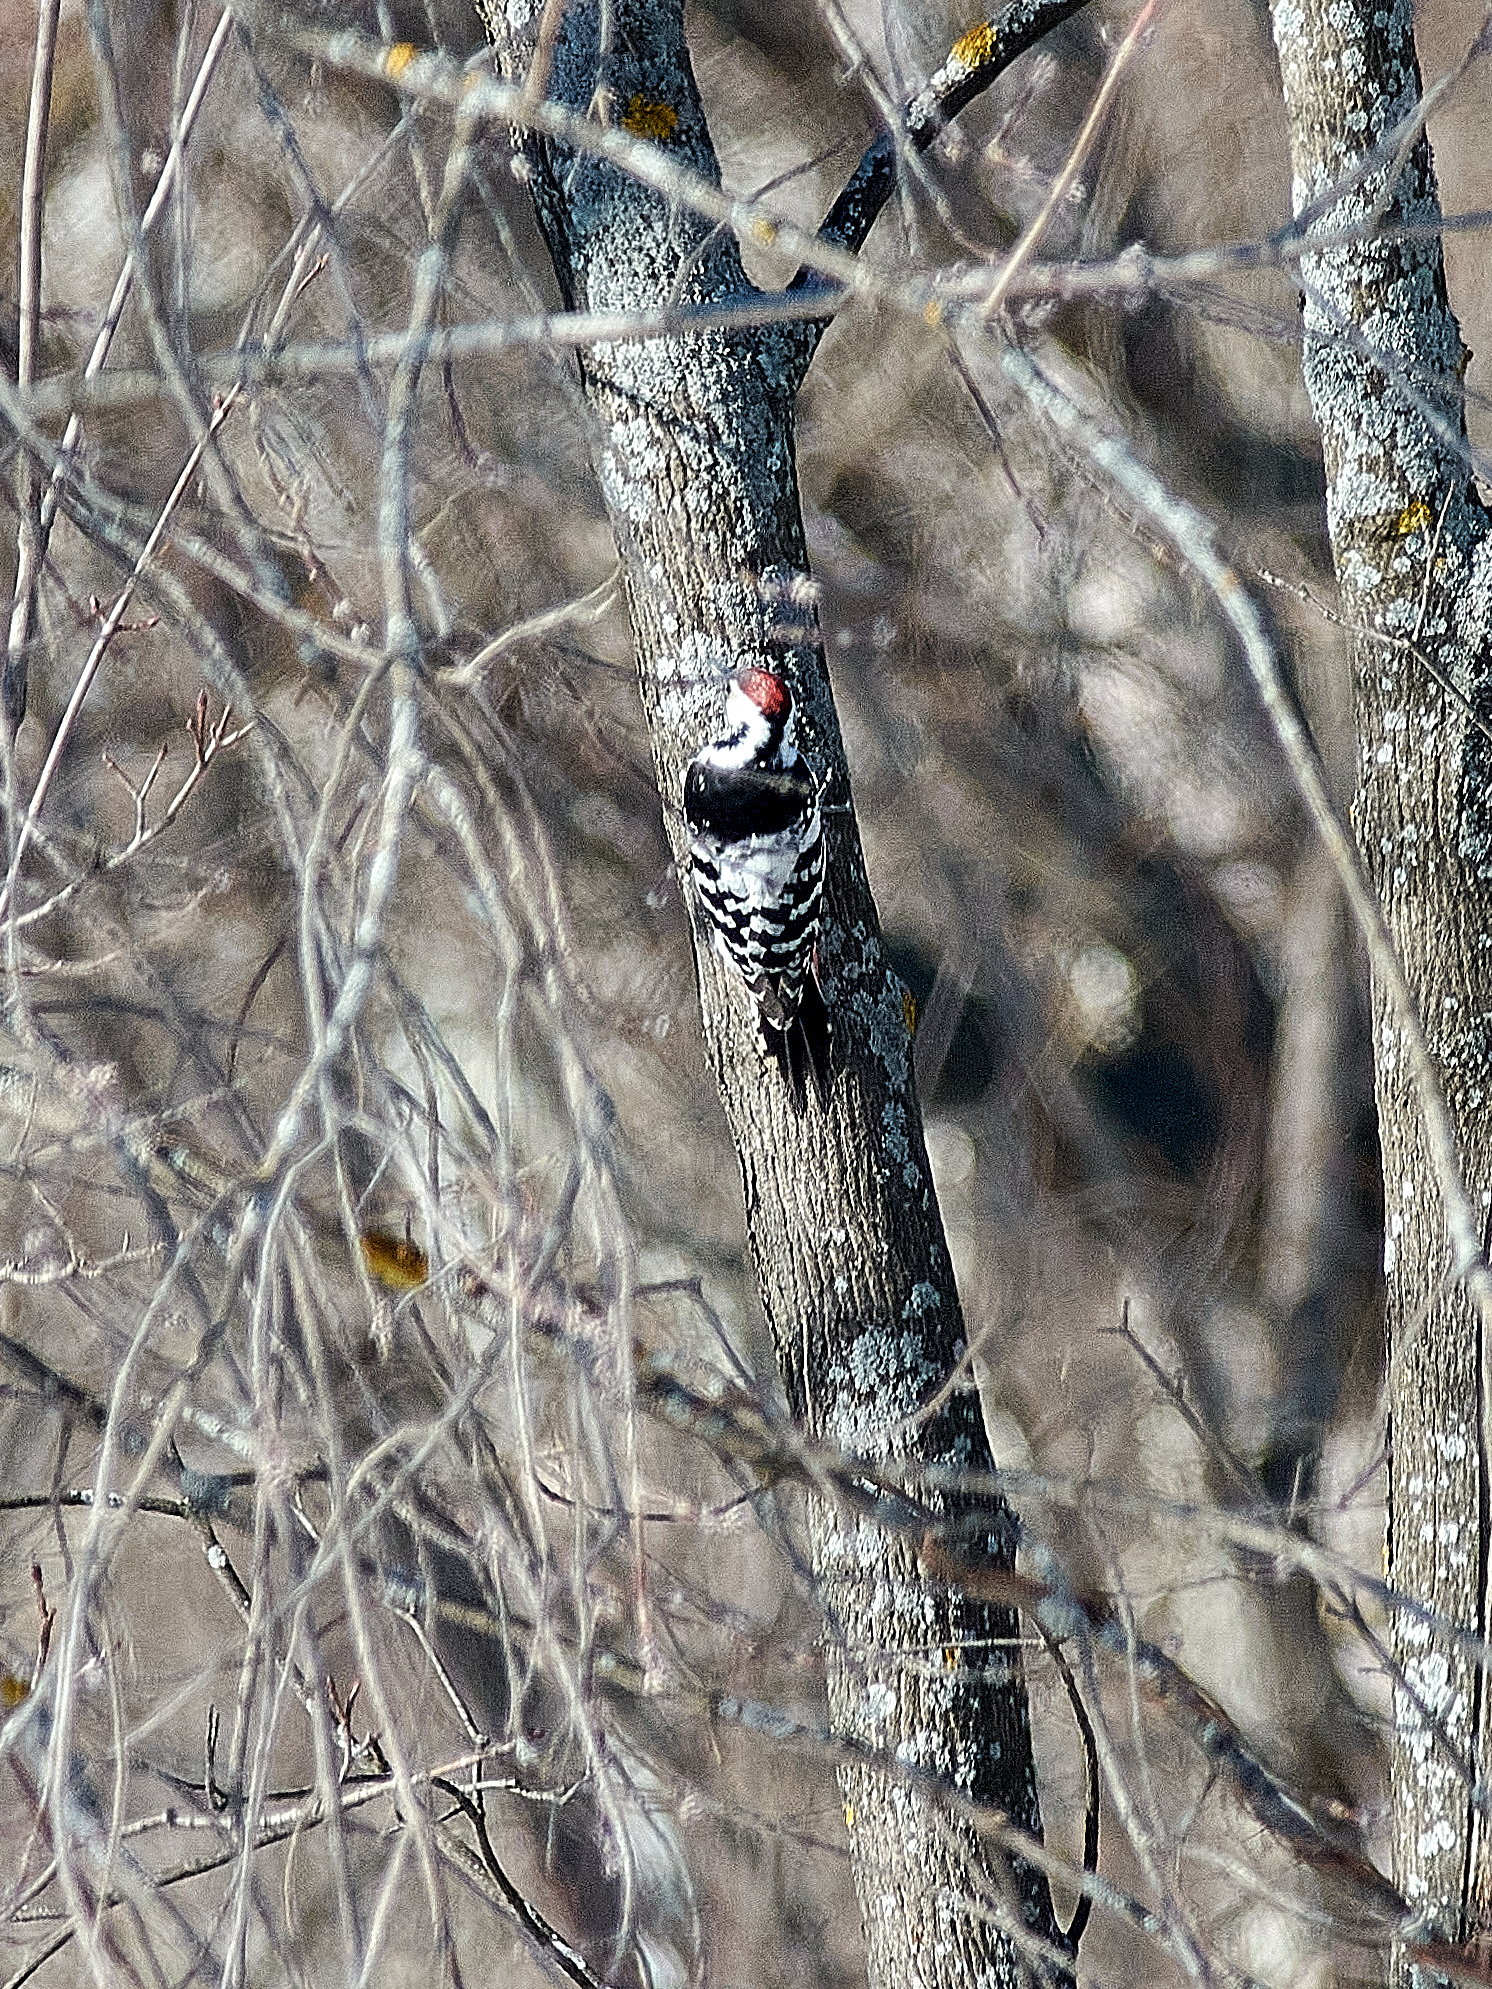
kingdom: Animalia
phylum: Chordata
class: Aves
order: Piciformes
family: Picidae
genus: Dendrocopos
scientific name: Dendrocopos leucotos
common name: White-backed woodpecker
